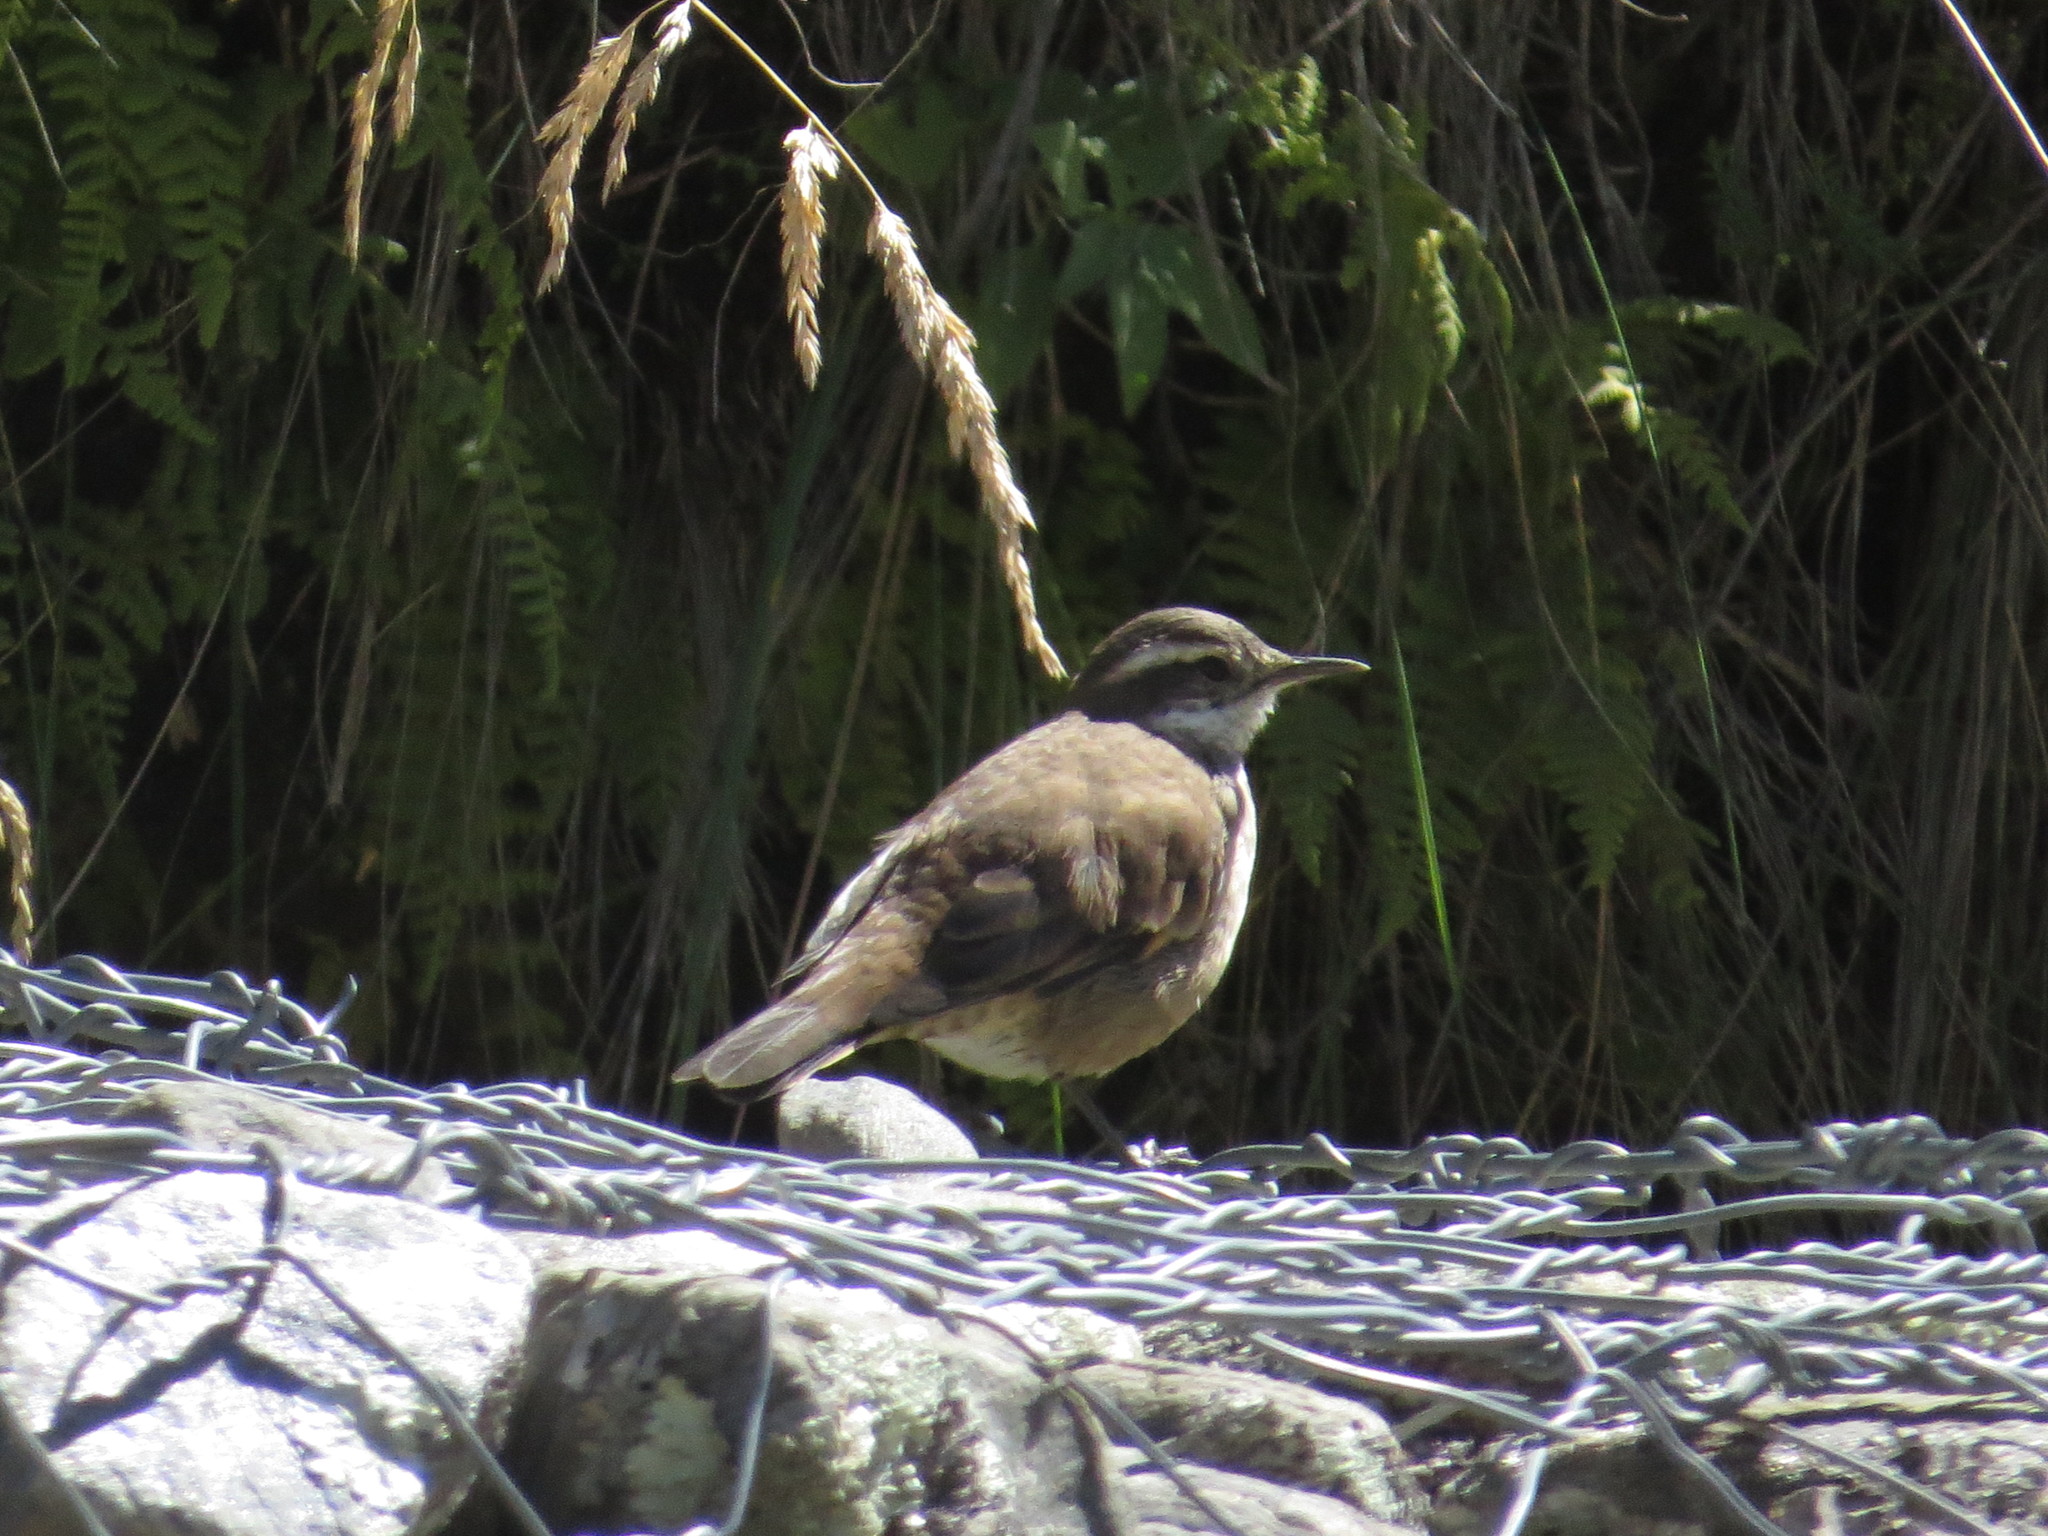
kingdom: Animalia
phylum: Chordata
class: Aves
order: Passeriformes
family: Furnariidae
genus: Cinclodes
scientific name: Cinclodes fuscus
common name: Buff-winged cinclodes
